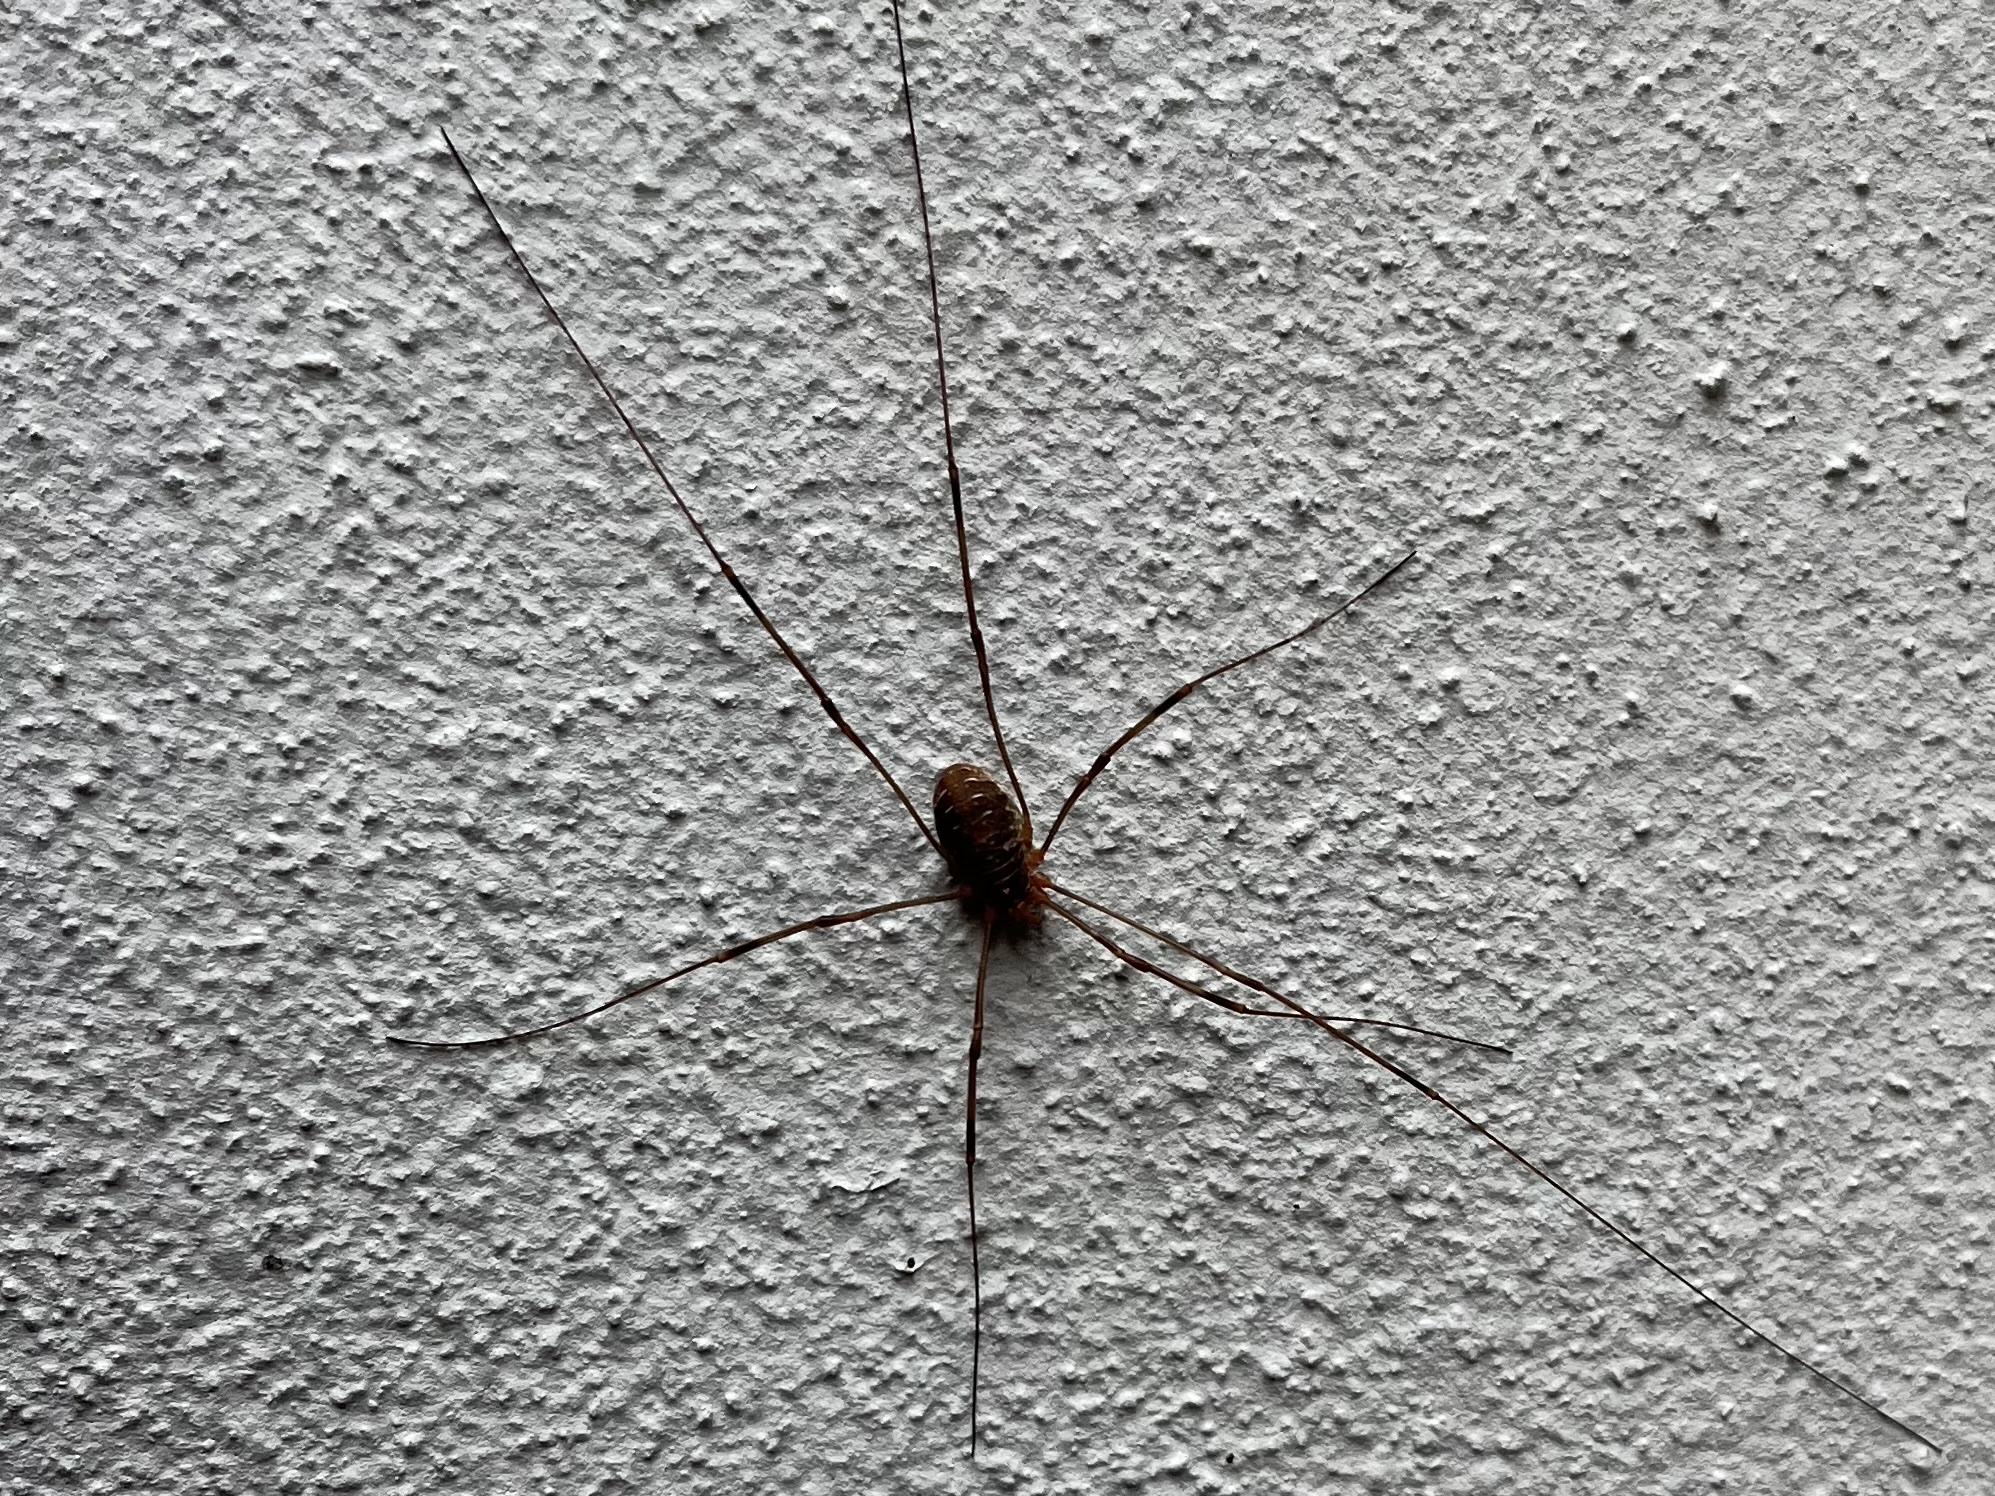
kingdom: Animalia
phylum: Arthropoda
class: Arachnida
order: Opiliones
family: Phalangiidae
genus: Opilio
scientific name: Opilio canestrinii
